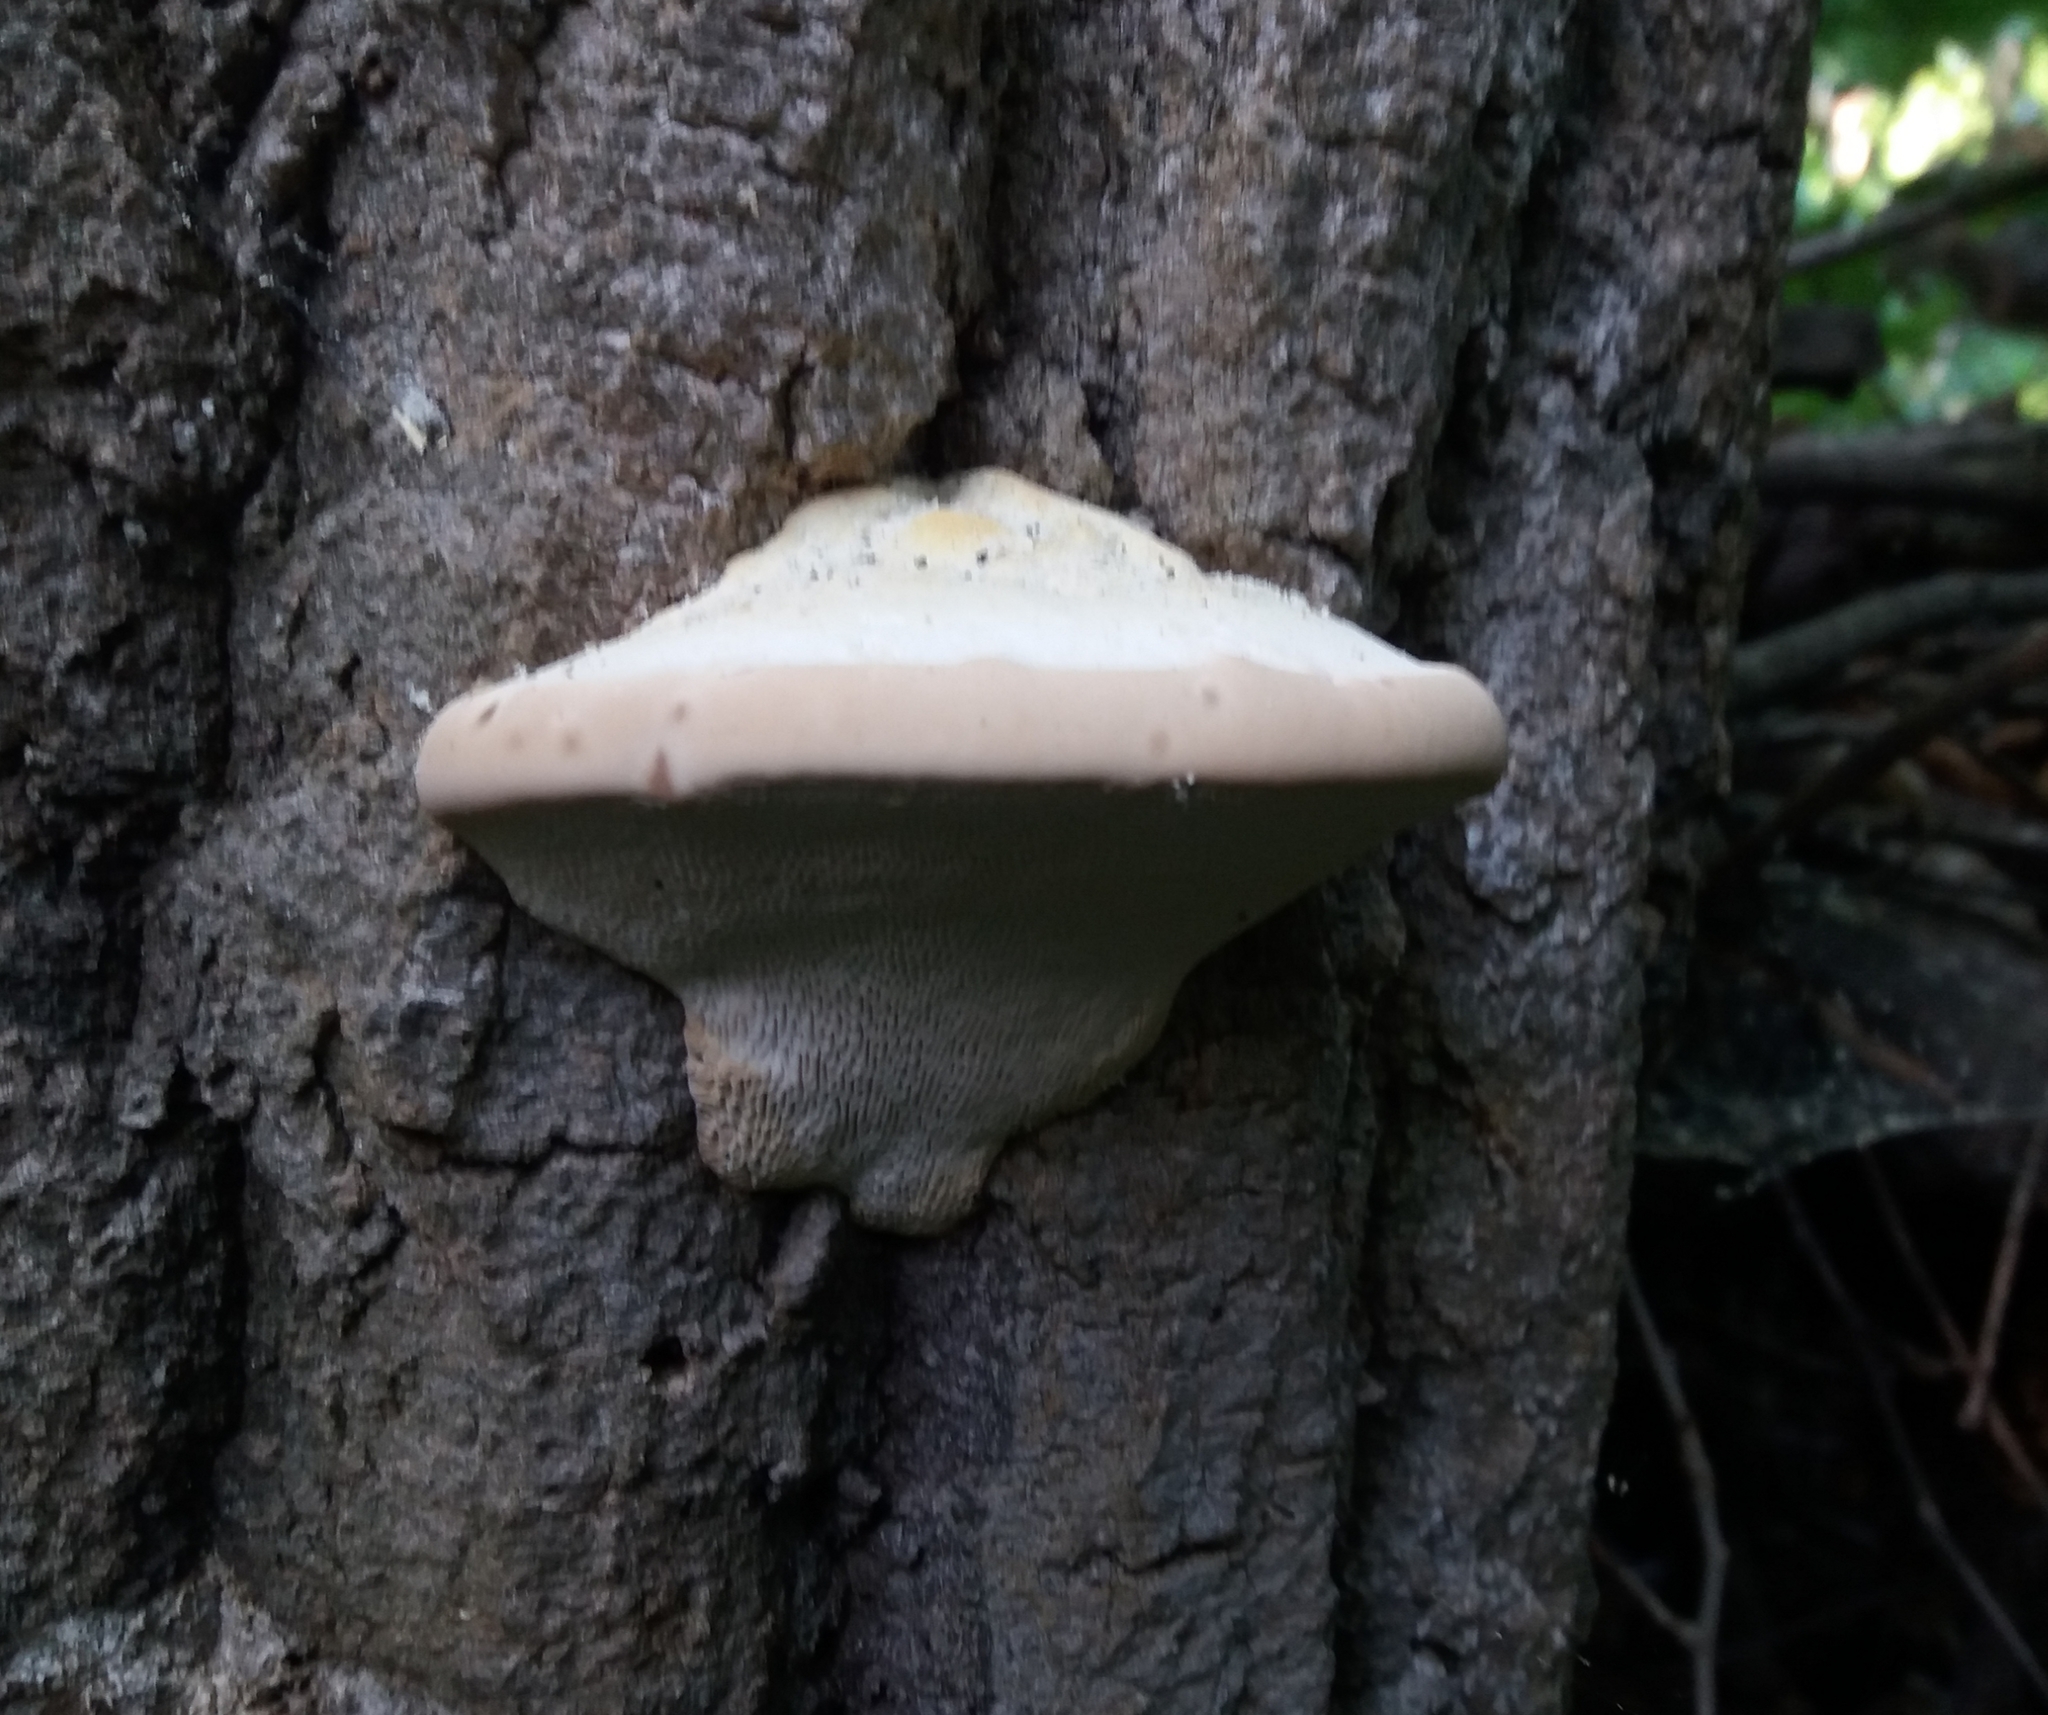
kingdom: Fungi
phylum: Basidiomycota
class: Agaricomycetes
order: Polyporales
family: Polyporaceae
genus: Trametes
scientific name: Trametes gibbosa
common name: Lumpy bracket
